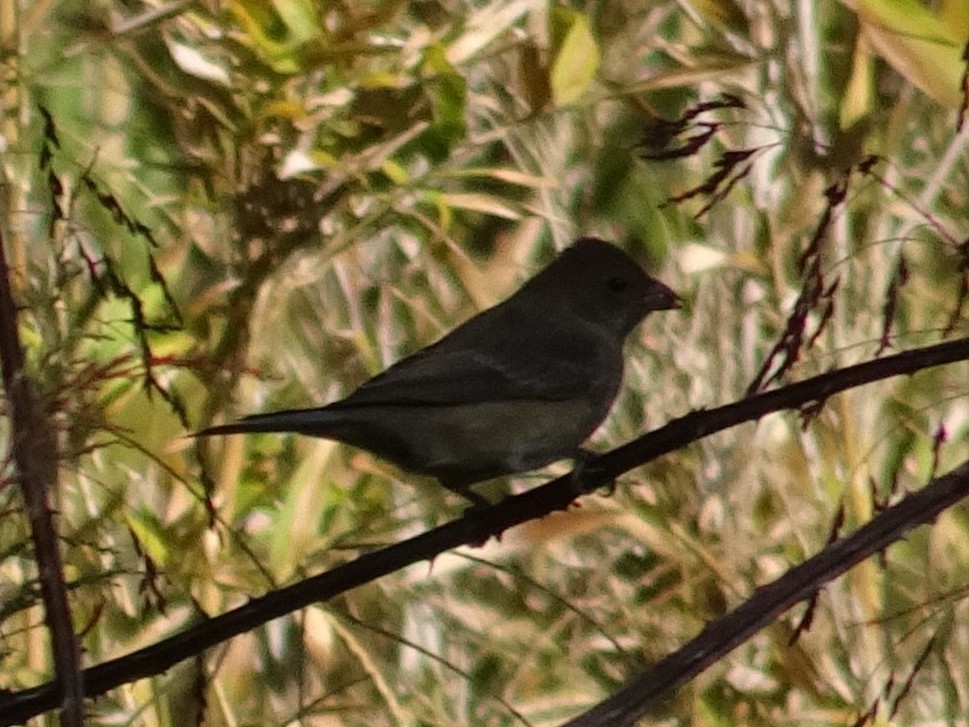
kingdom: Animalia
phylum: Chordata
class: Aves
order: Passeriformes
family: Cardinalidae
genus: Passerina
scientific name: Passerina cyanea
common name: Indigo bunting
